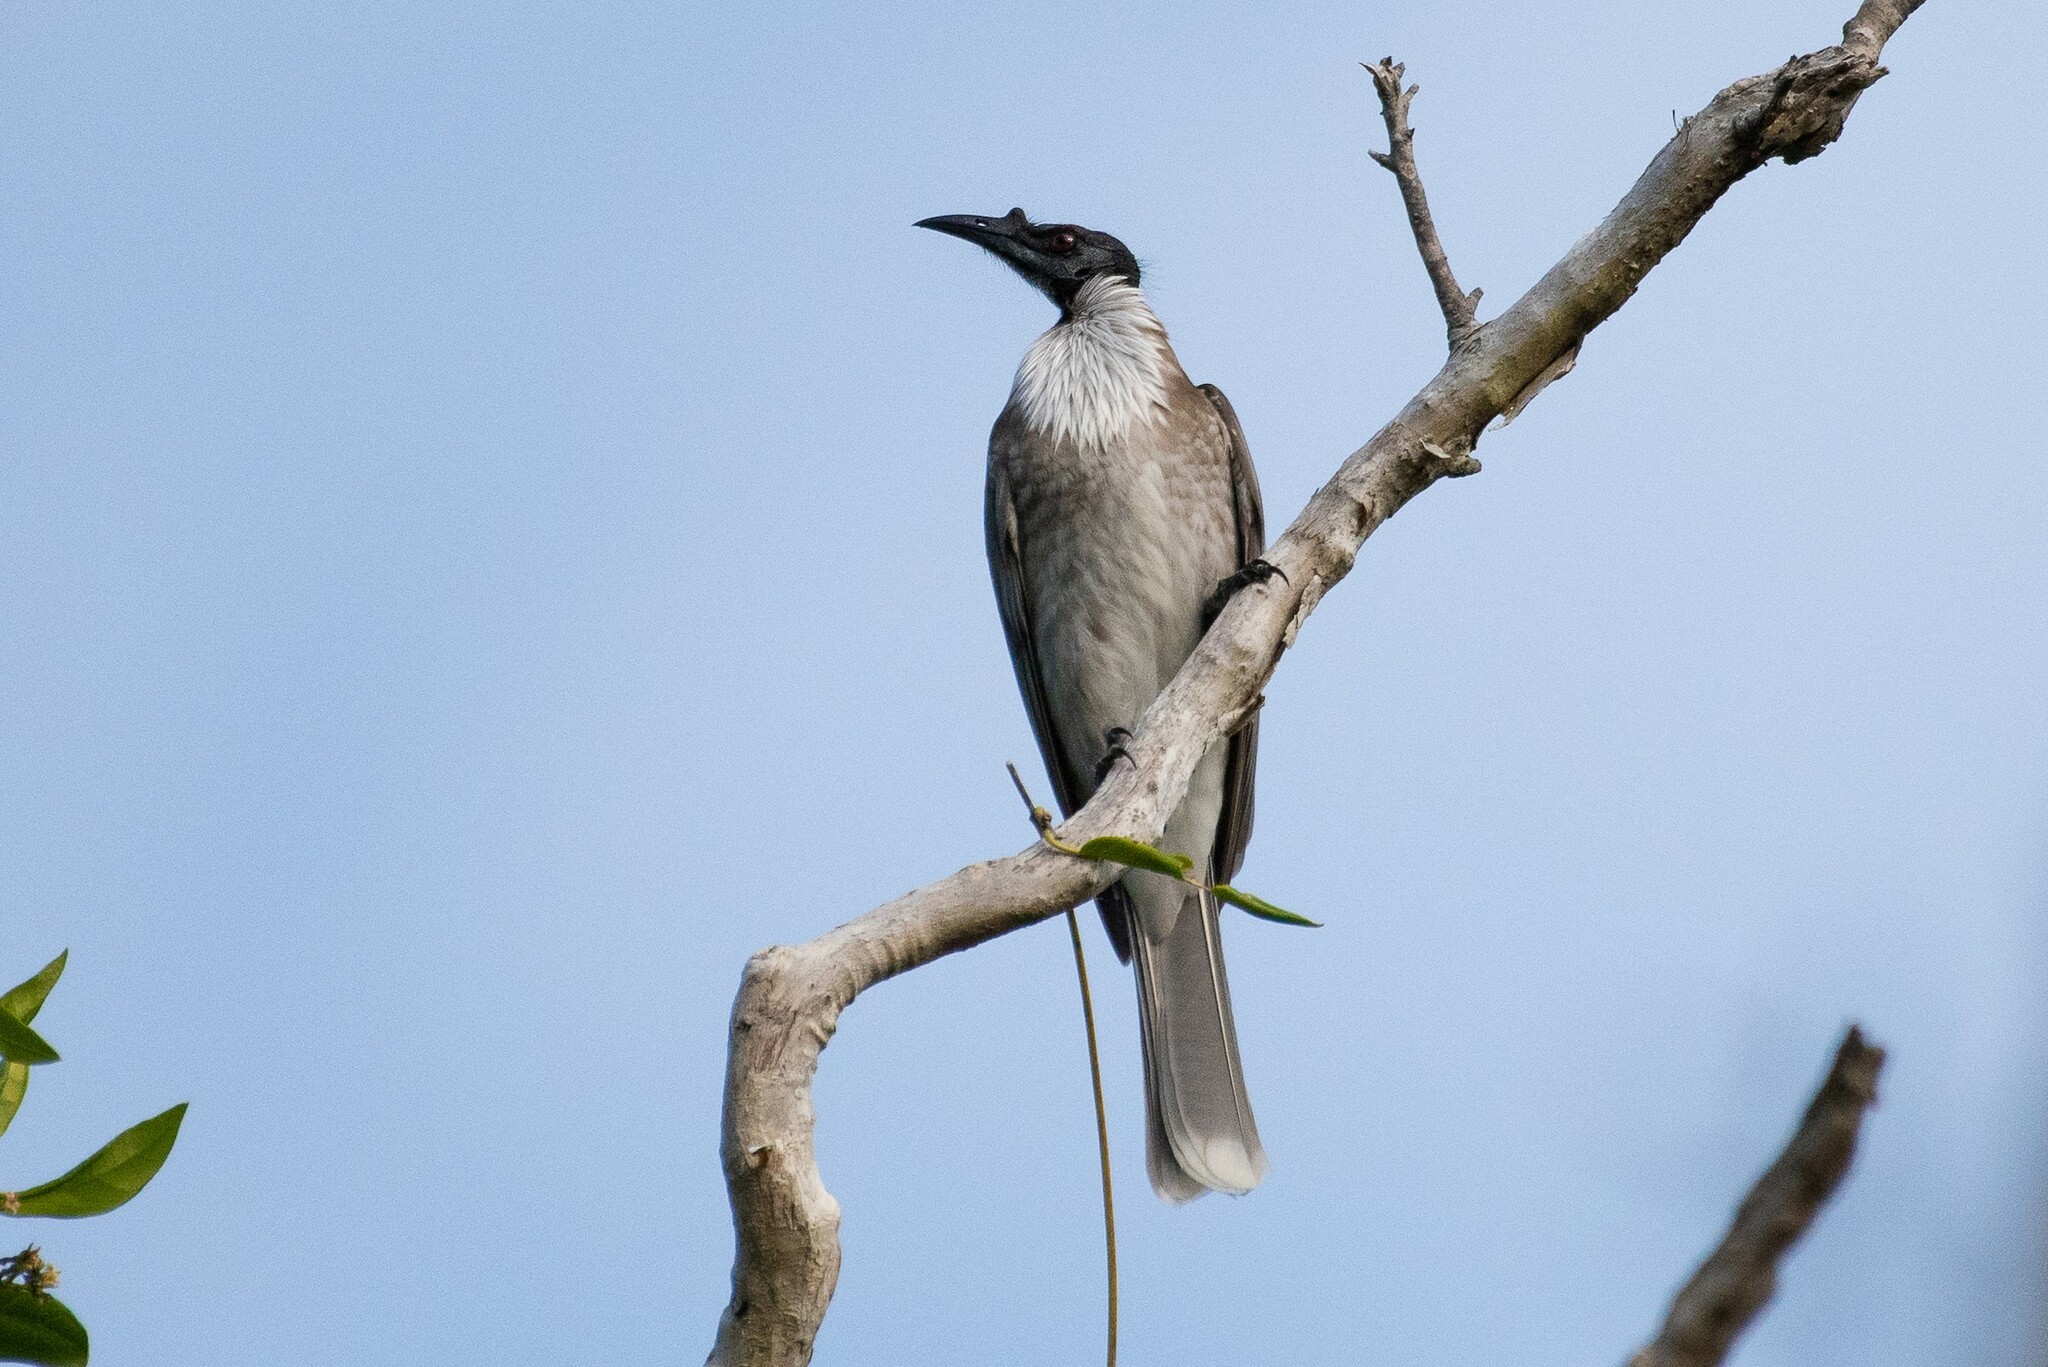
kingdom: Animalia
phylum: Chordata
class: Aves
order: Passeriformes
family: Meliphagidae
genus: Philemon
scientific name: Philemon corniculatus
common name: Noisy friarbird
